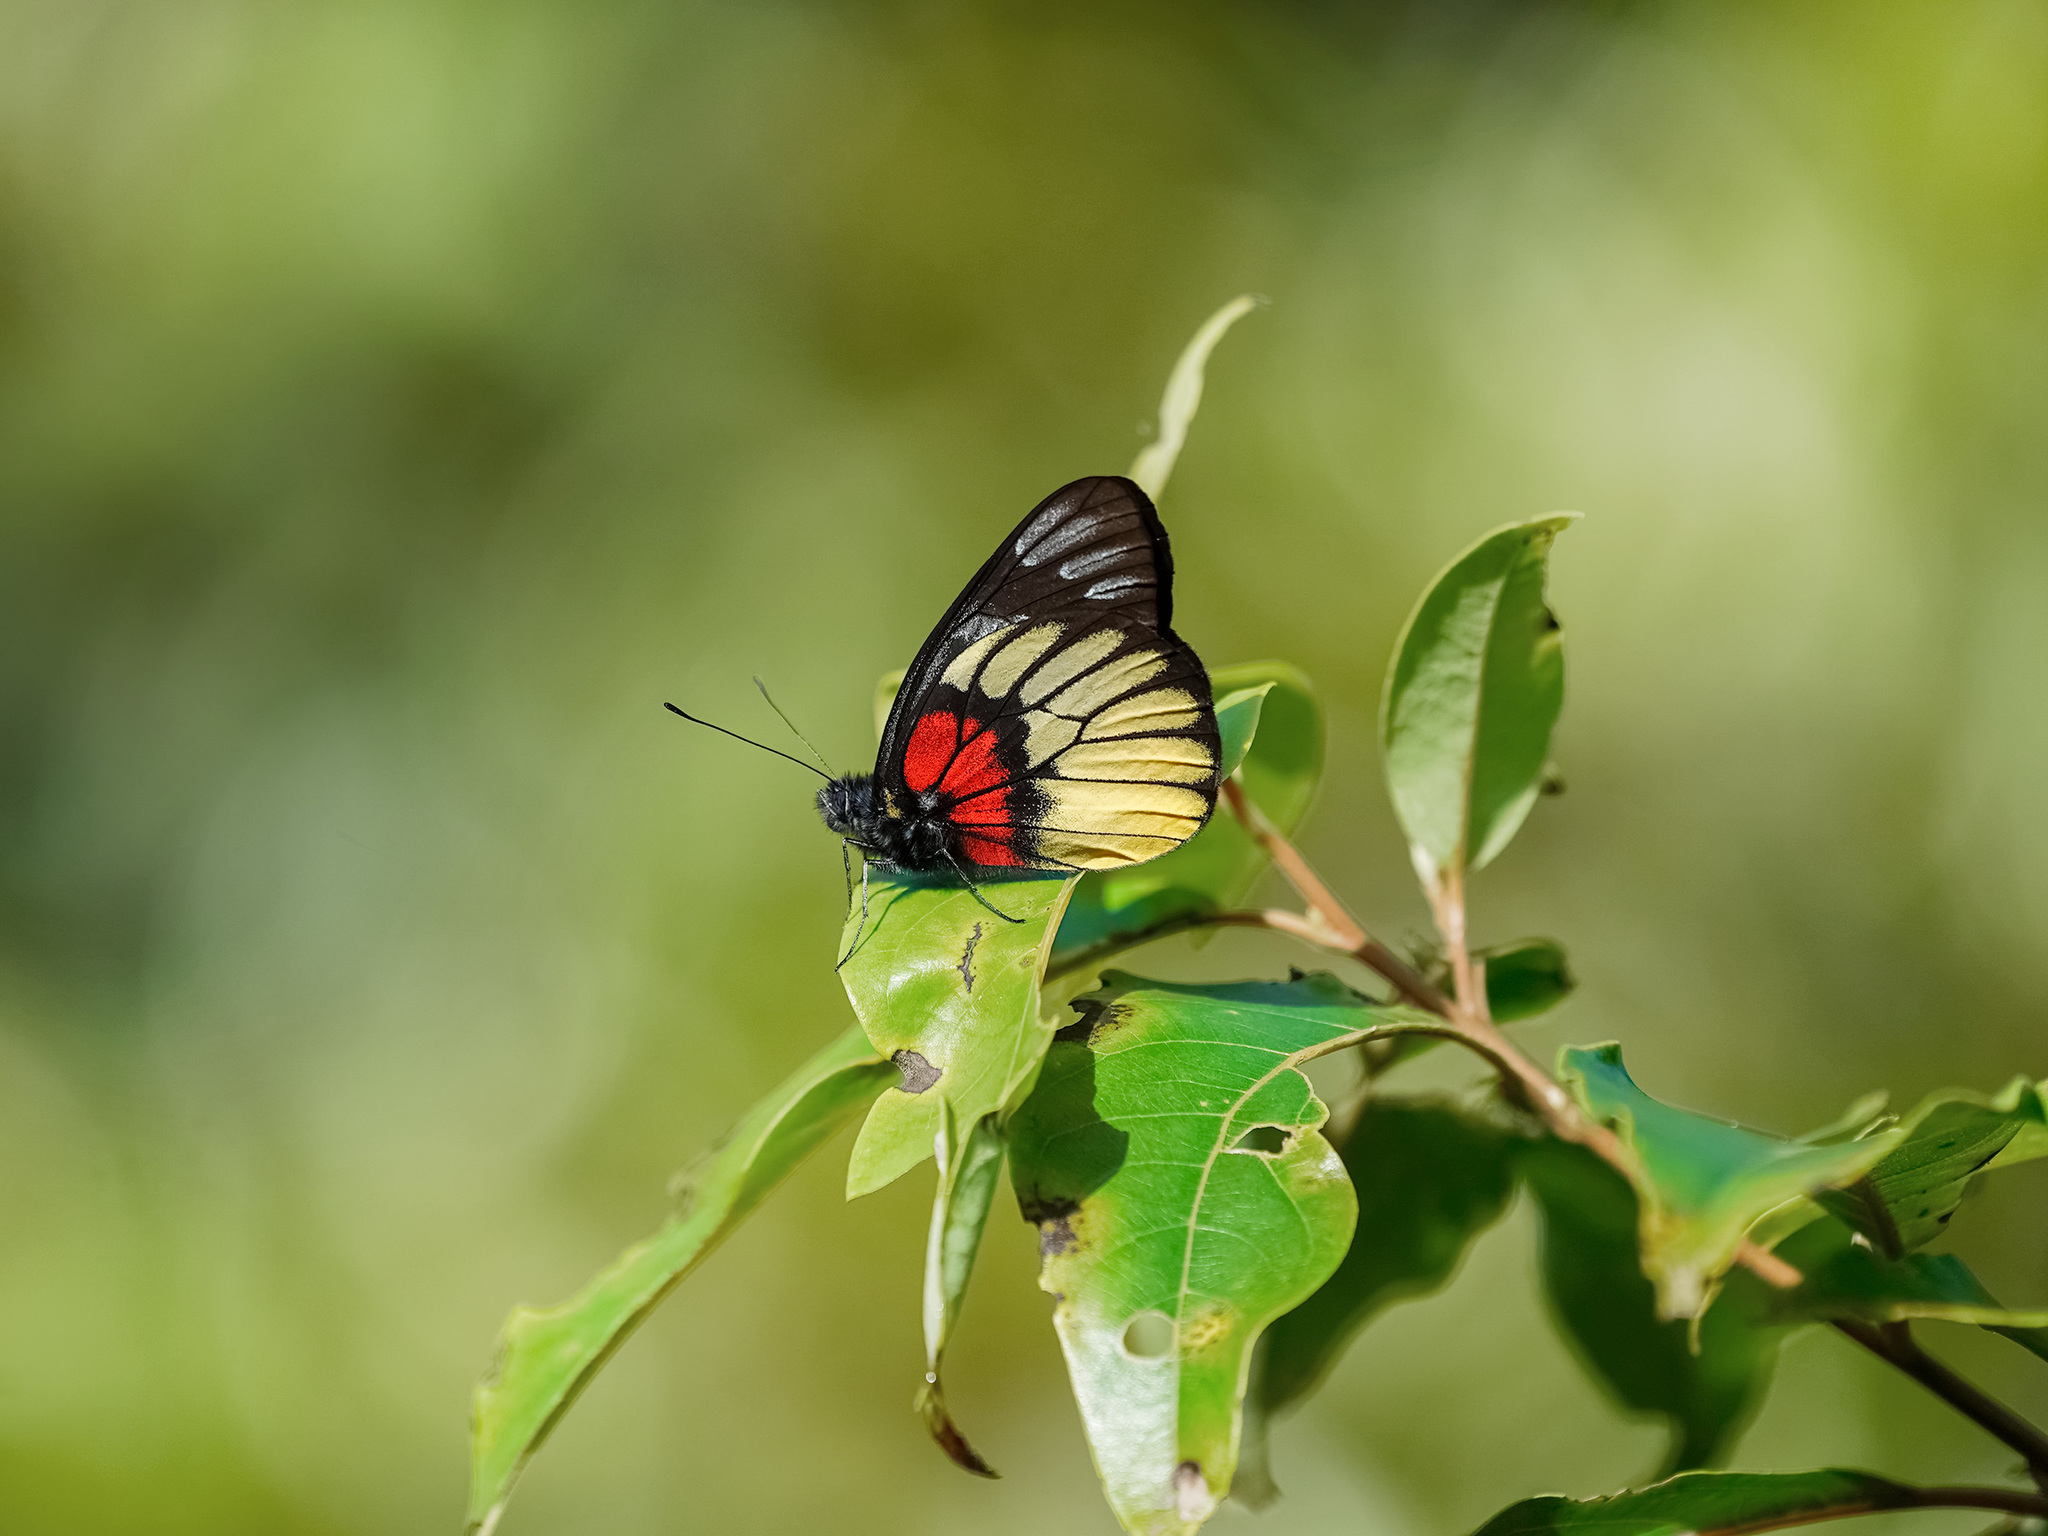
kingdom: Animalia
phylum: Arthropoda
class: Insecta
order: Lepidoptera
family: Pieridae
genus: Delias
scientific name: Delias ninus
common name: Malayan jezebel
